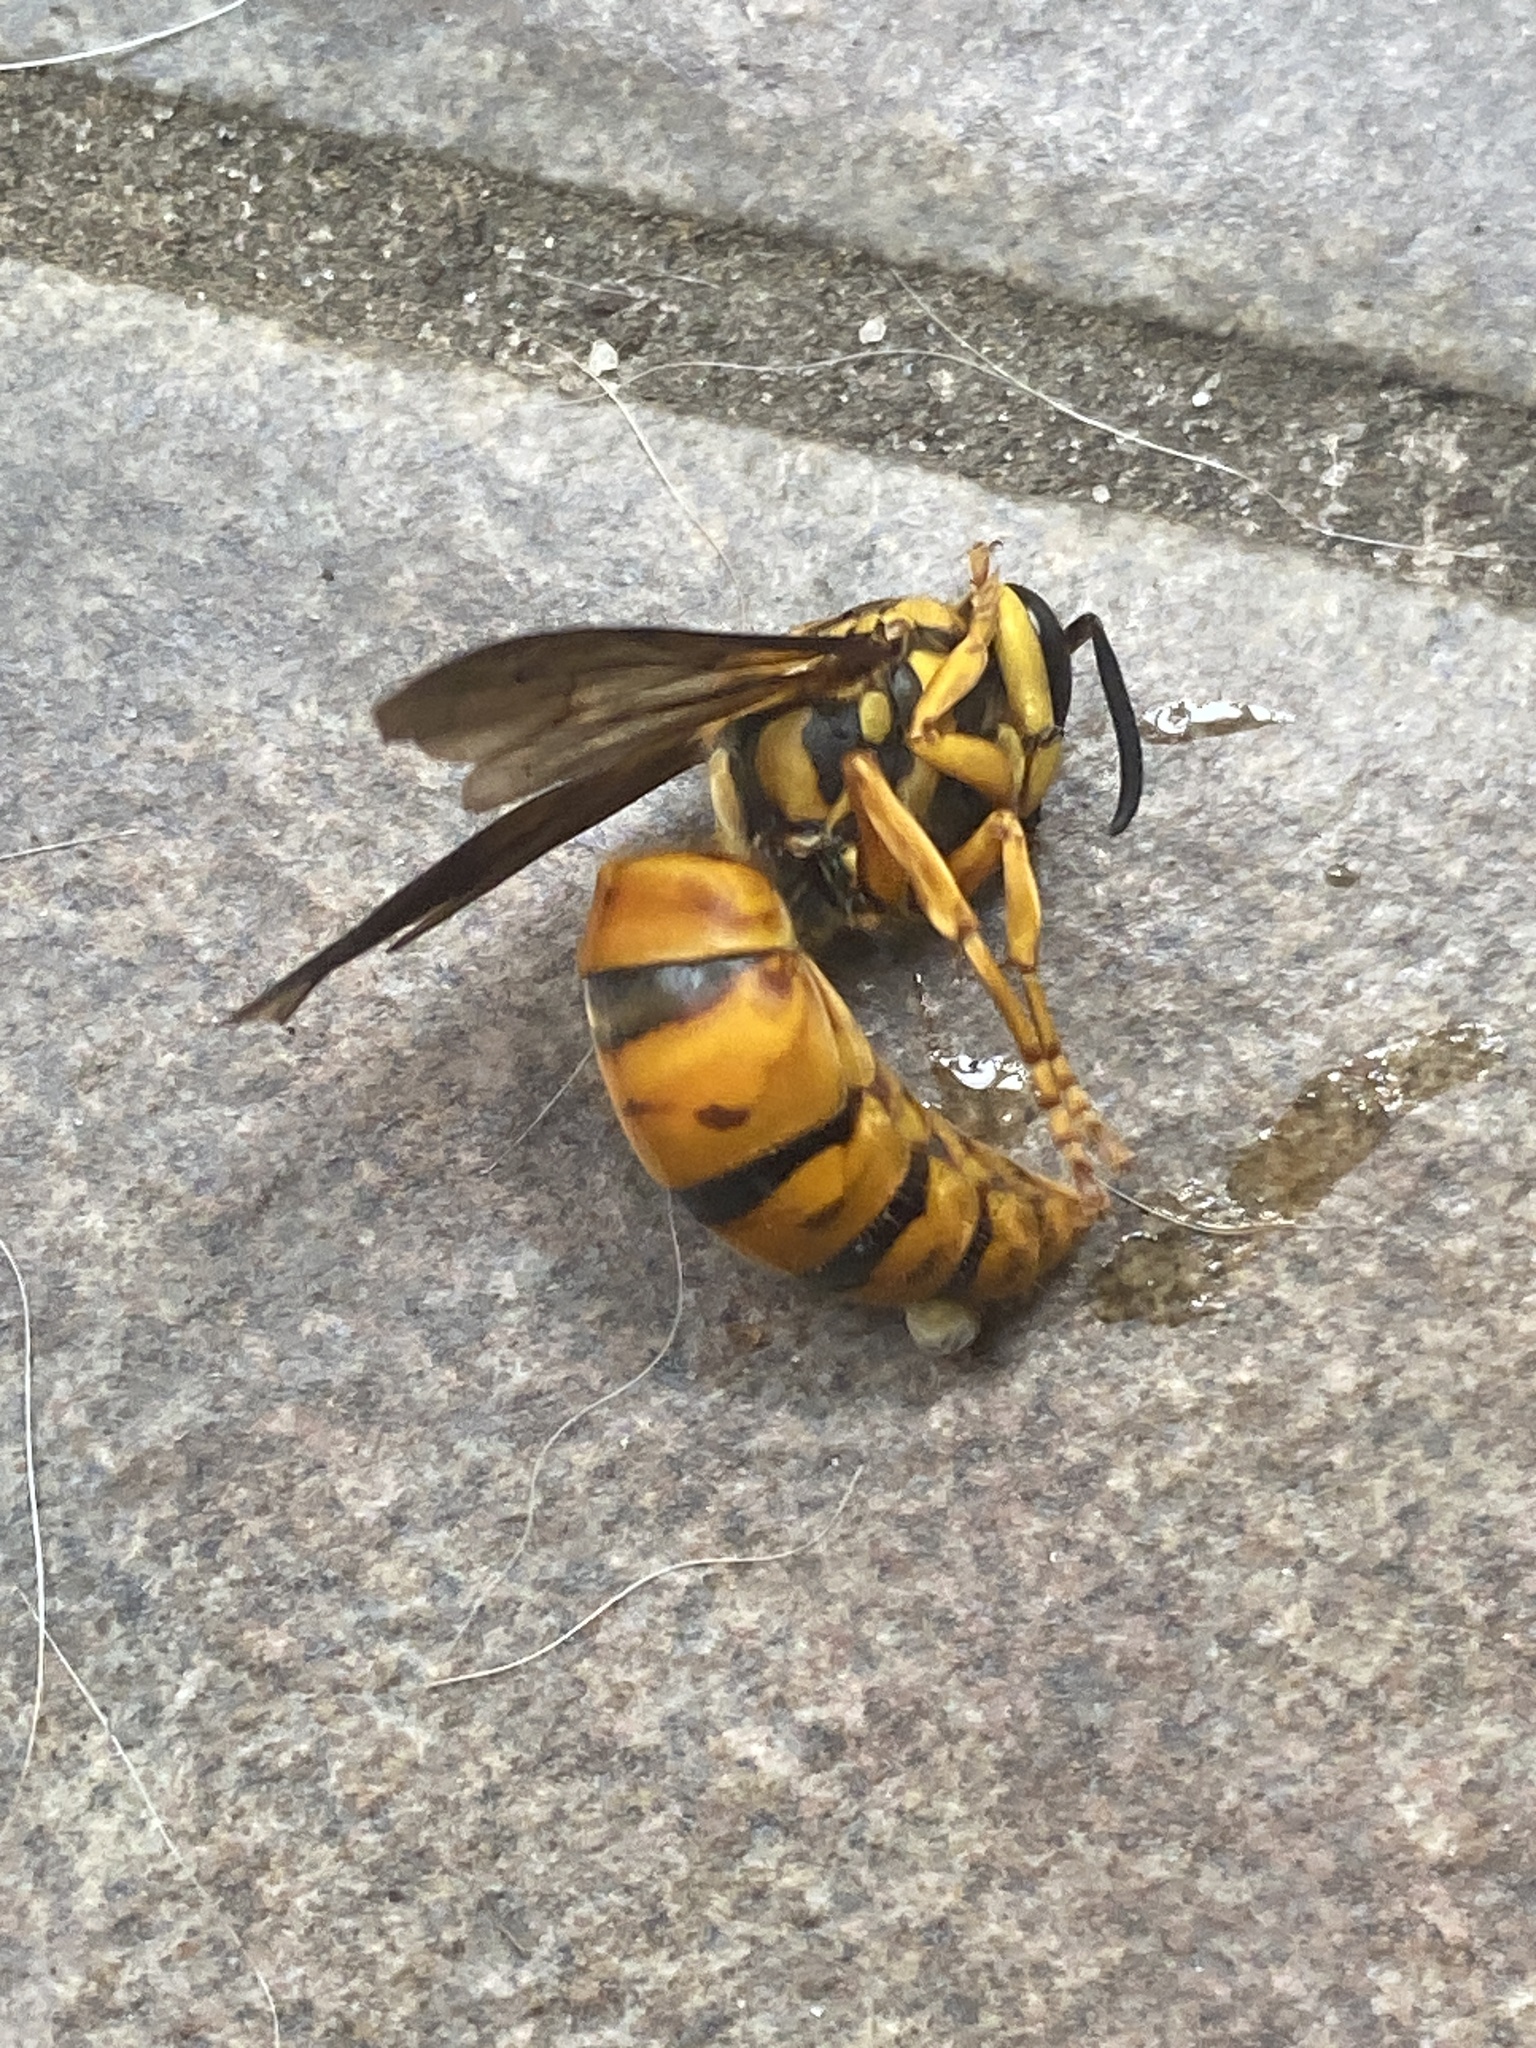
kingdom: Animalia
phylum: Arthropoda
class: Insecta
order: Hymenoptera
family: Vespidae
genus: Vespula
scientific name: Vespula squamosa
